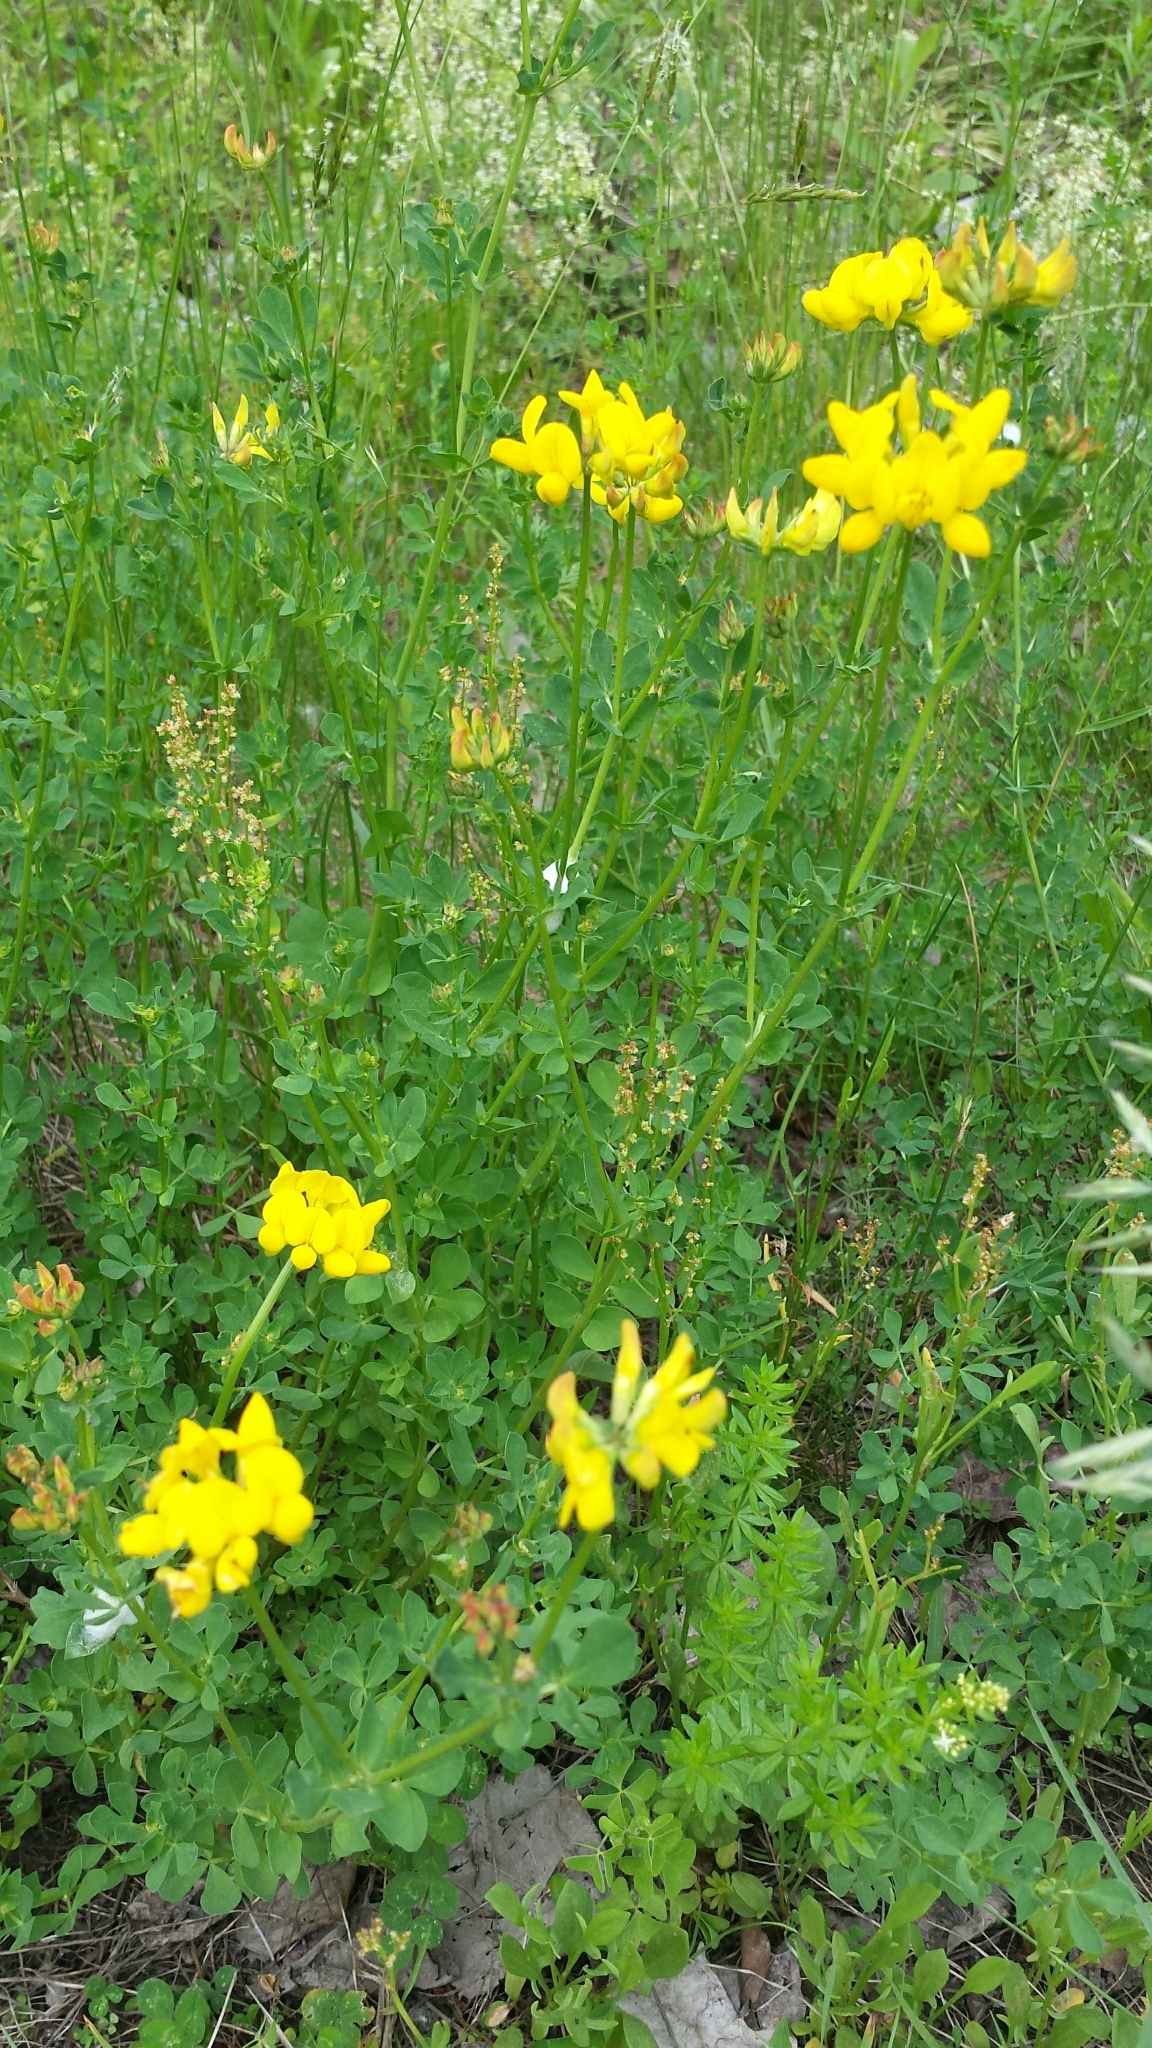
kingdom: Plantae
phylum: Tracheophyta
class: Magnoliopsida
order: Fabales
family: Fabaceae
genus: Lotus
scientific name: Lotus corniculatus
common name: Common bird's-foot-trefoil
